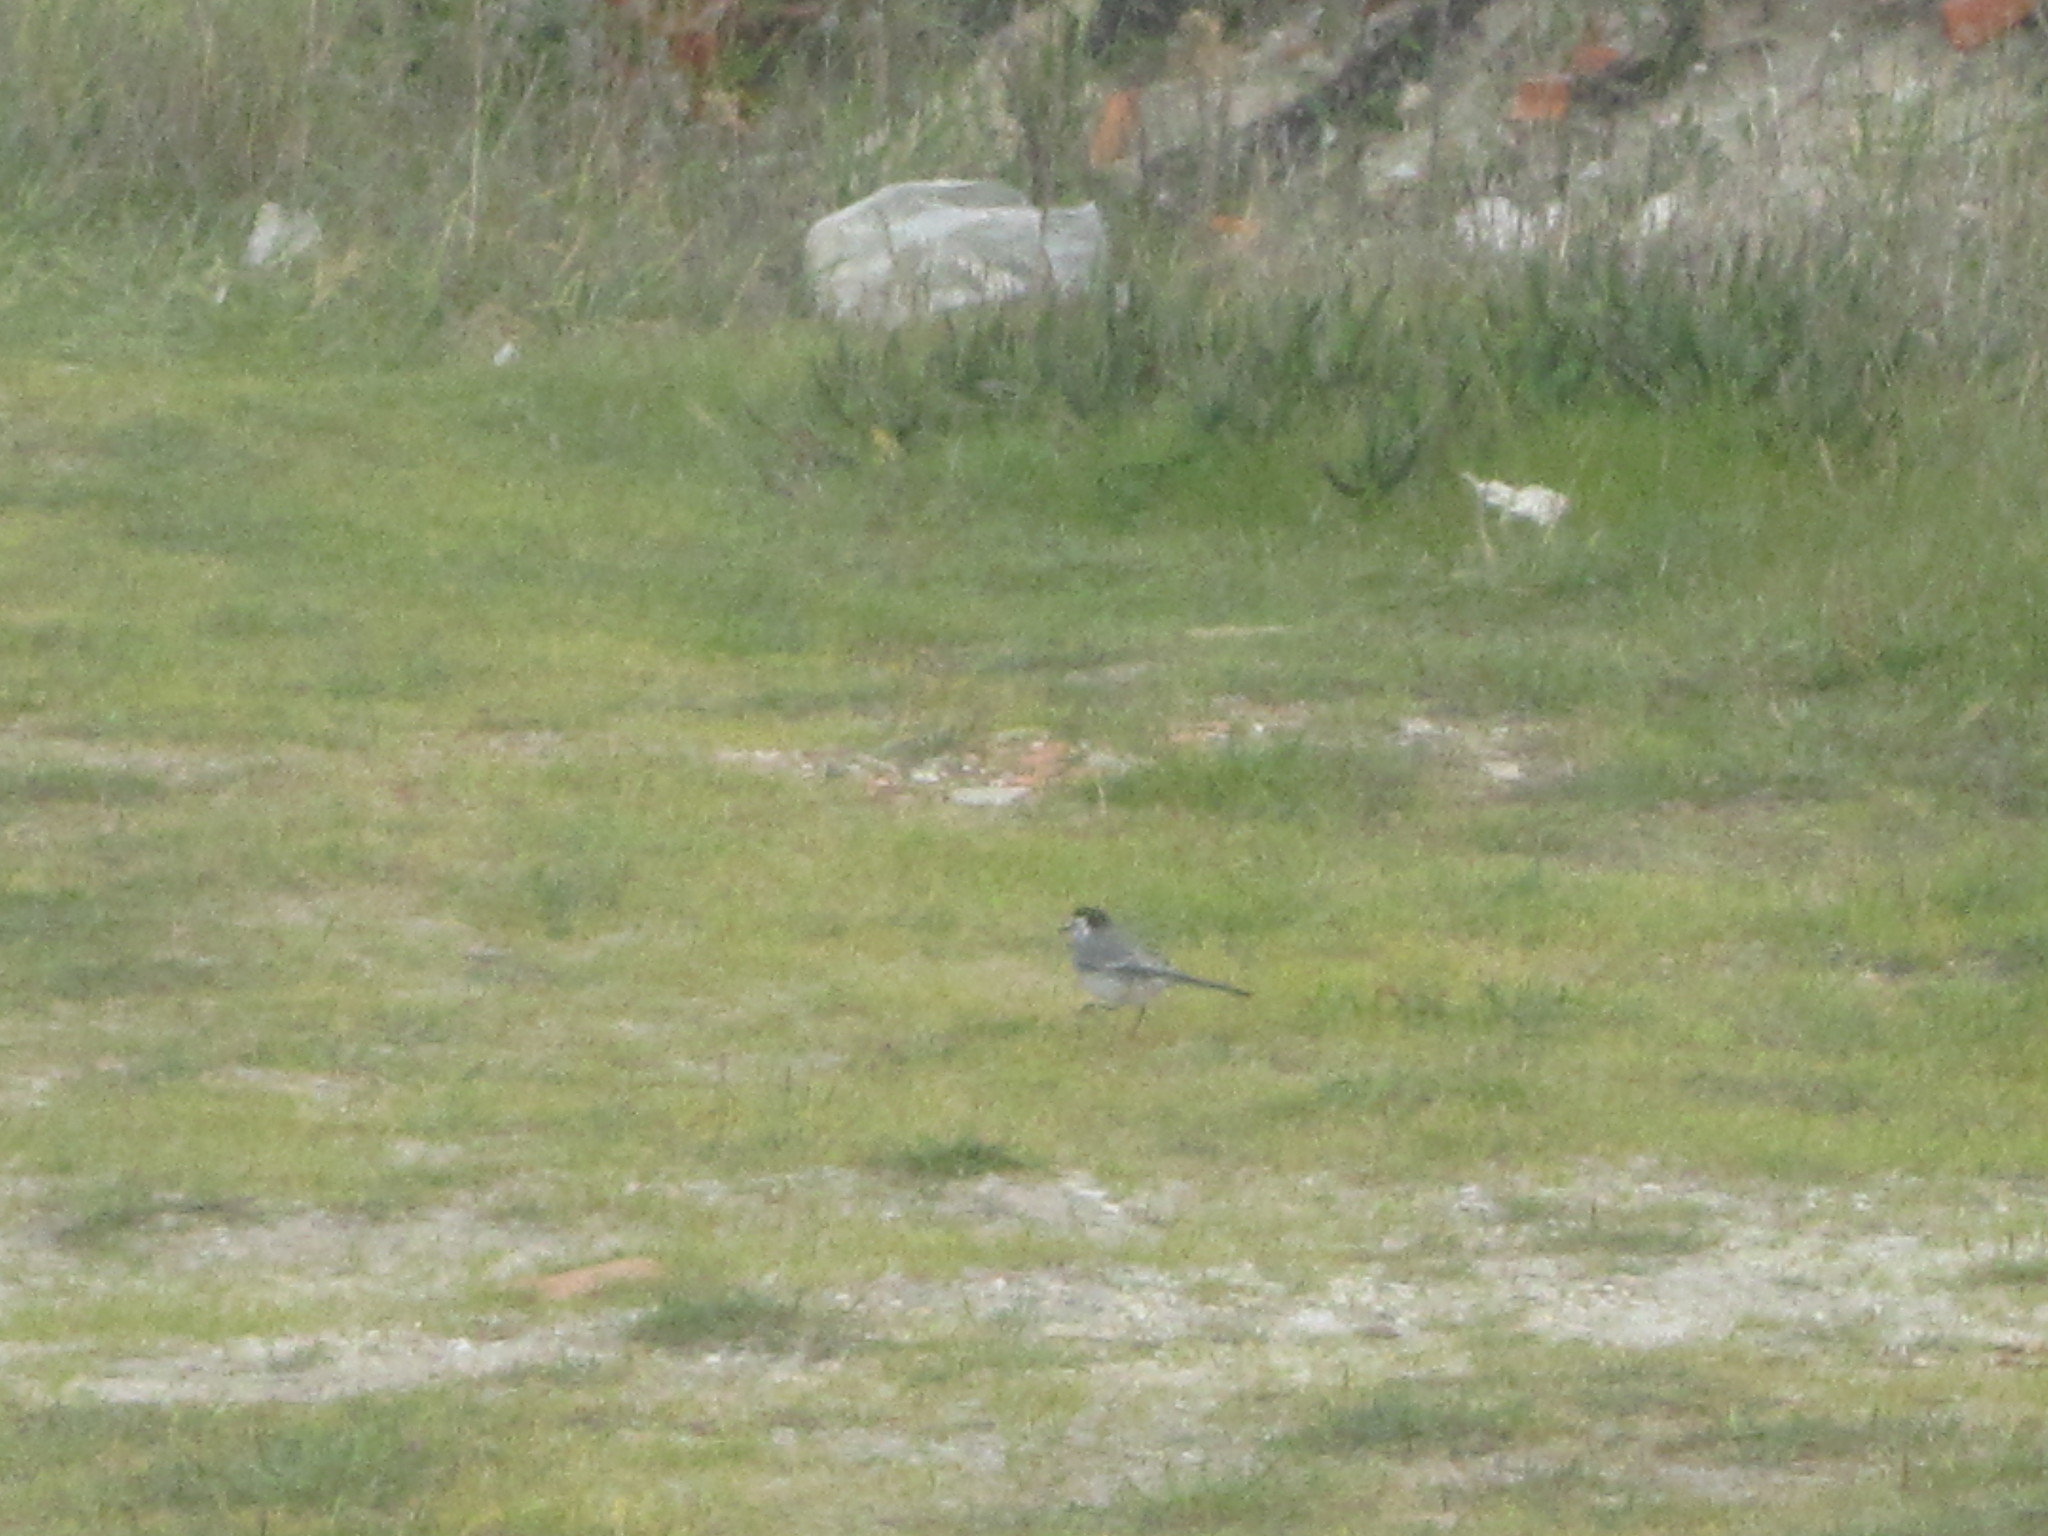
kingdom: Animalia
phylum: Chordata
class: Aves
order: Passeriformes
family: Motacillidae
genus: Motacilla
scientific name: Motacilla alba
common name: White wagtail
